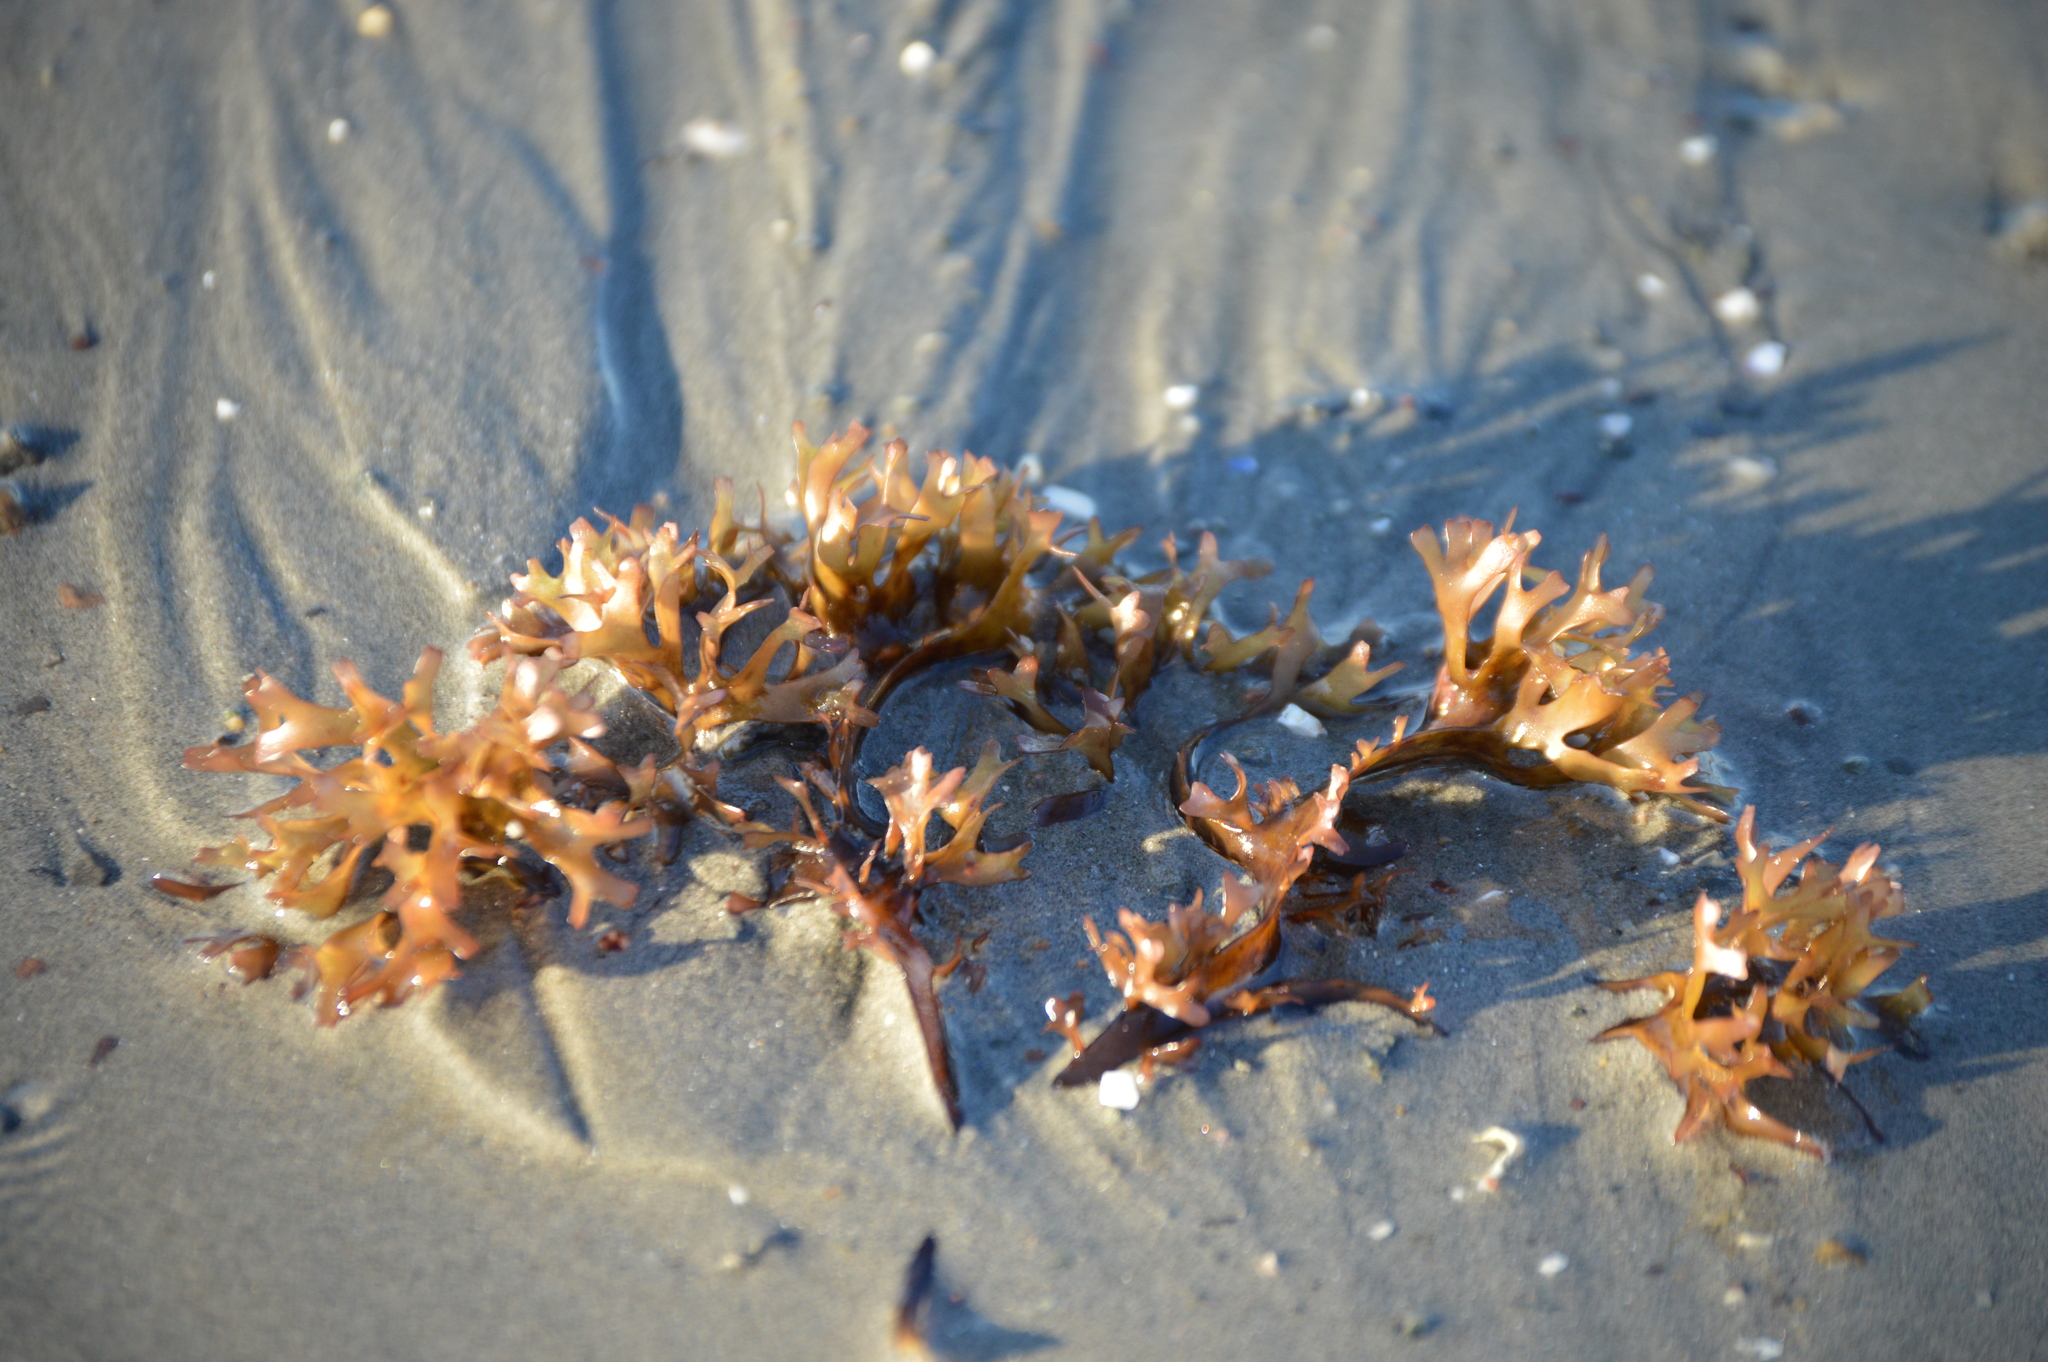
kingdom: Plantae
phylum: Rhodophyta
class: Florideophyceae
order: Gigartinales
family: Gigartinaceae
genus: Chondrus
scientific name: Chondrus crispus
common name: Carrageen
